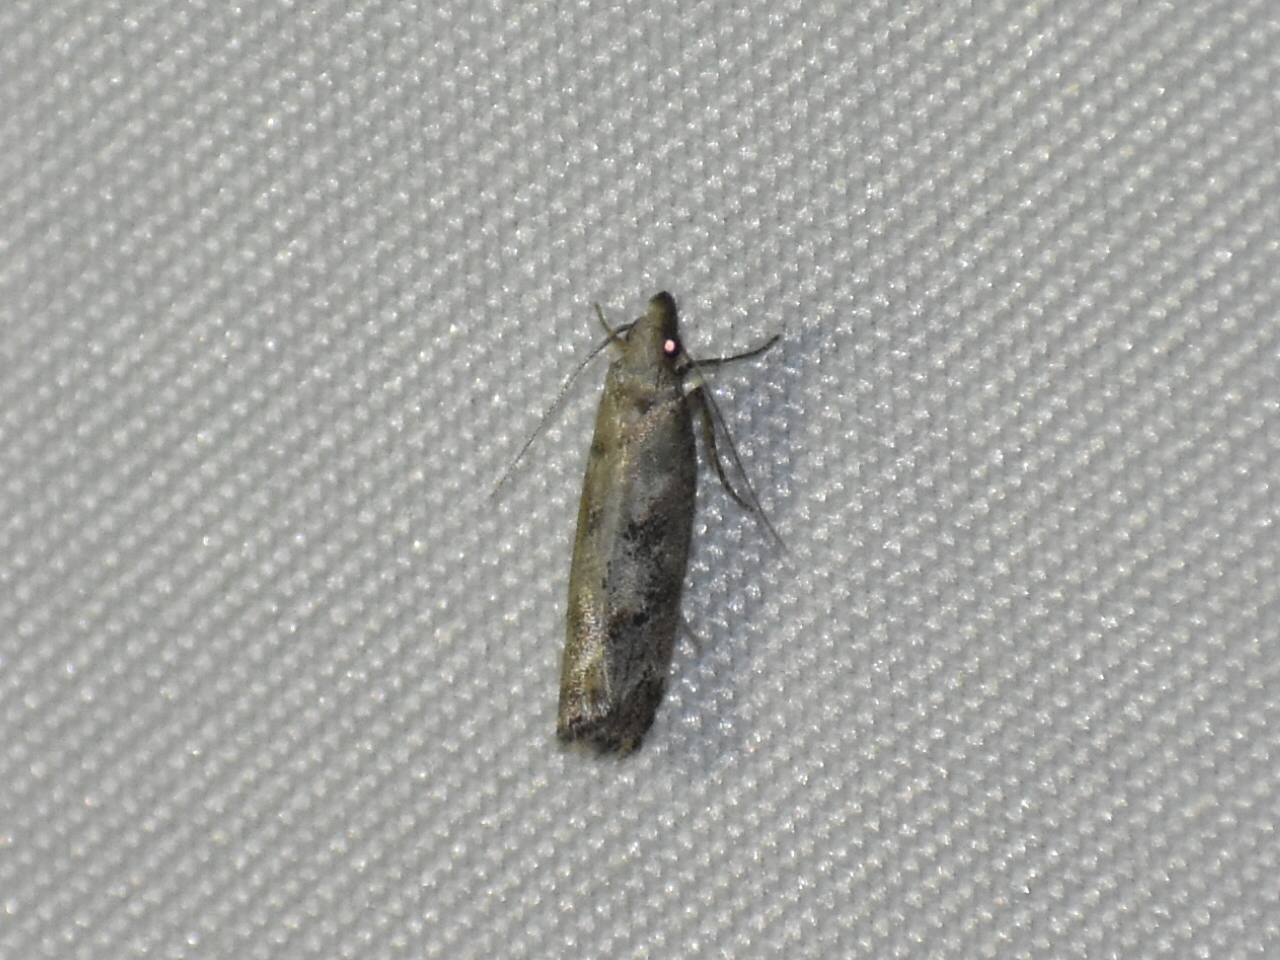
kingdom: Animalia
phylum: Arthropoda
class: Insecta
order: Lepidoptera
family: Gelechiidae
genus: Dichomeris
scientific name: Dichomeris inversella
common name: Inverse dichomeris moth
